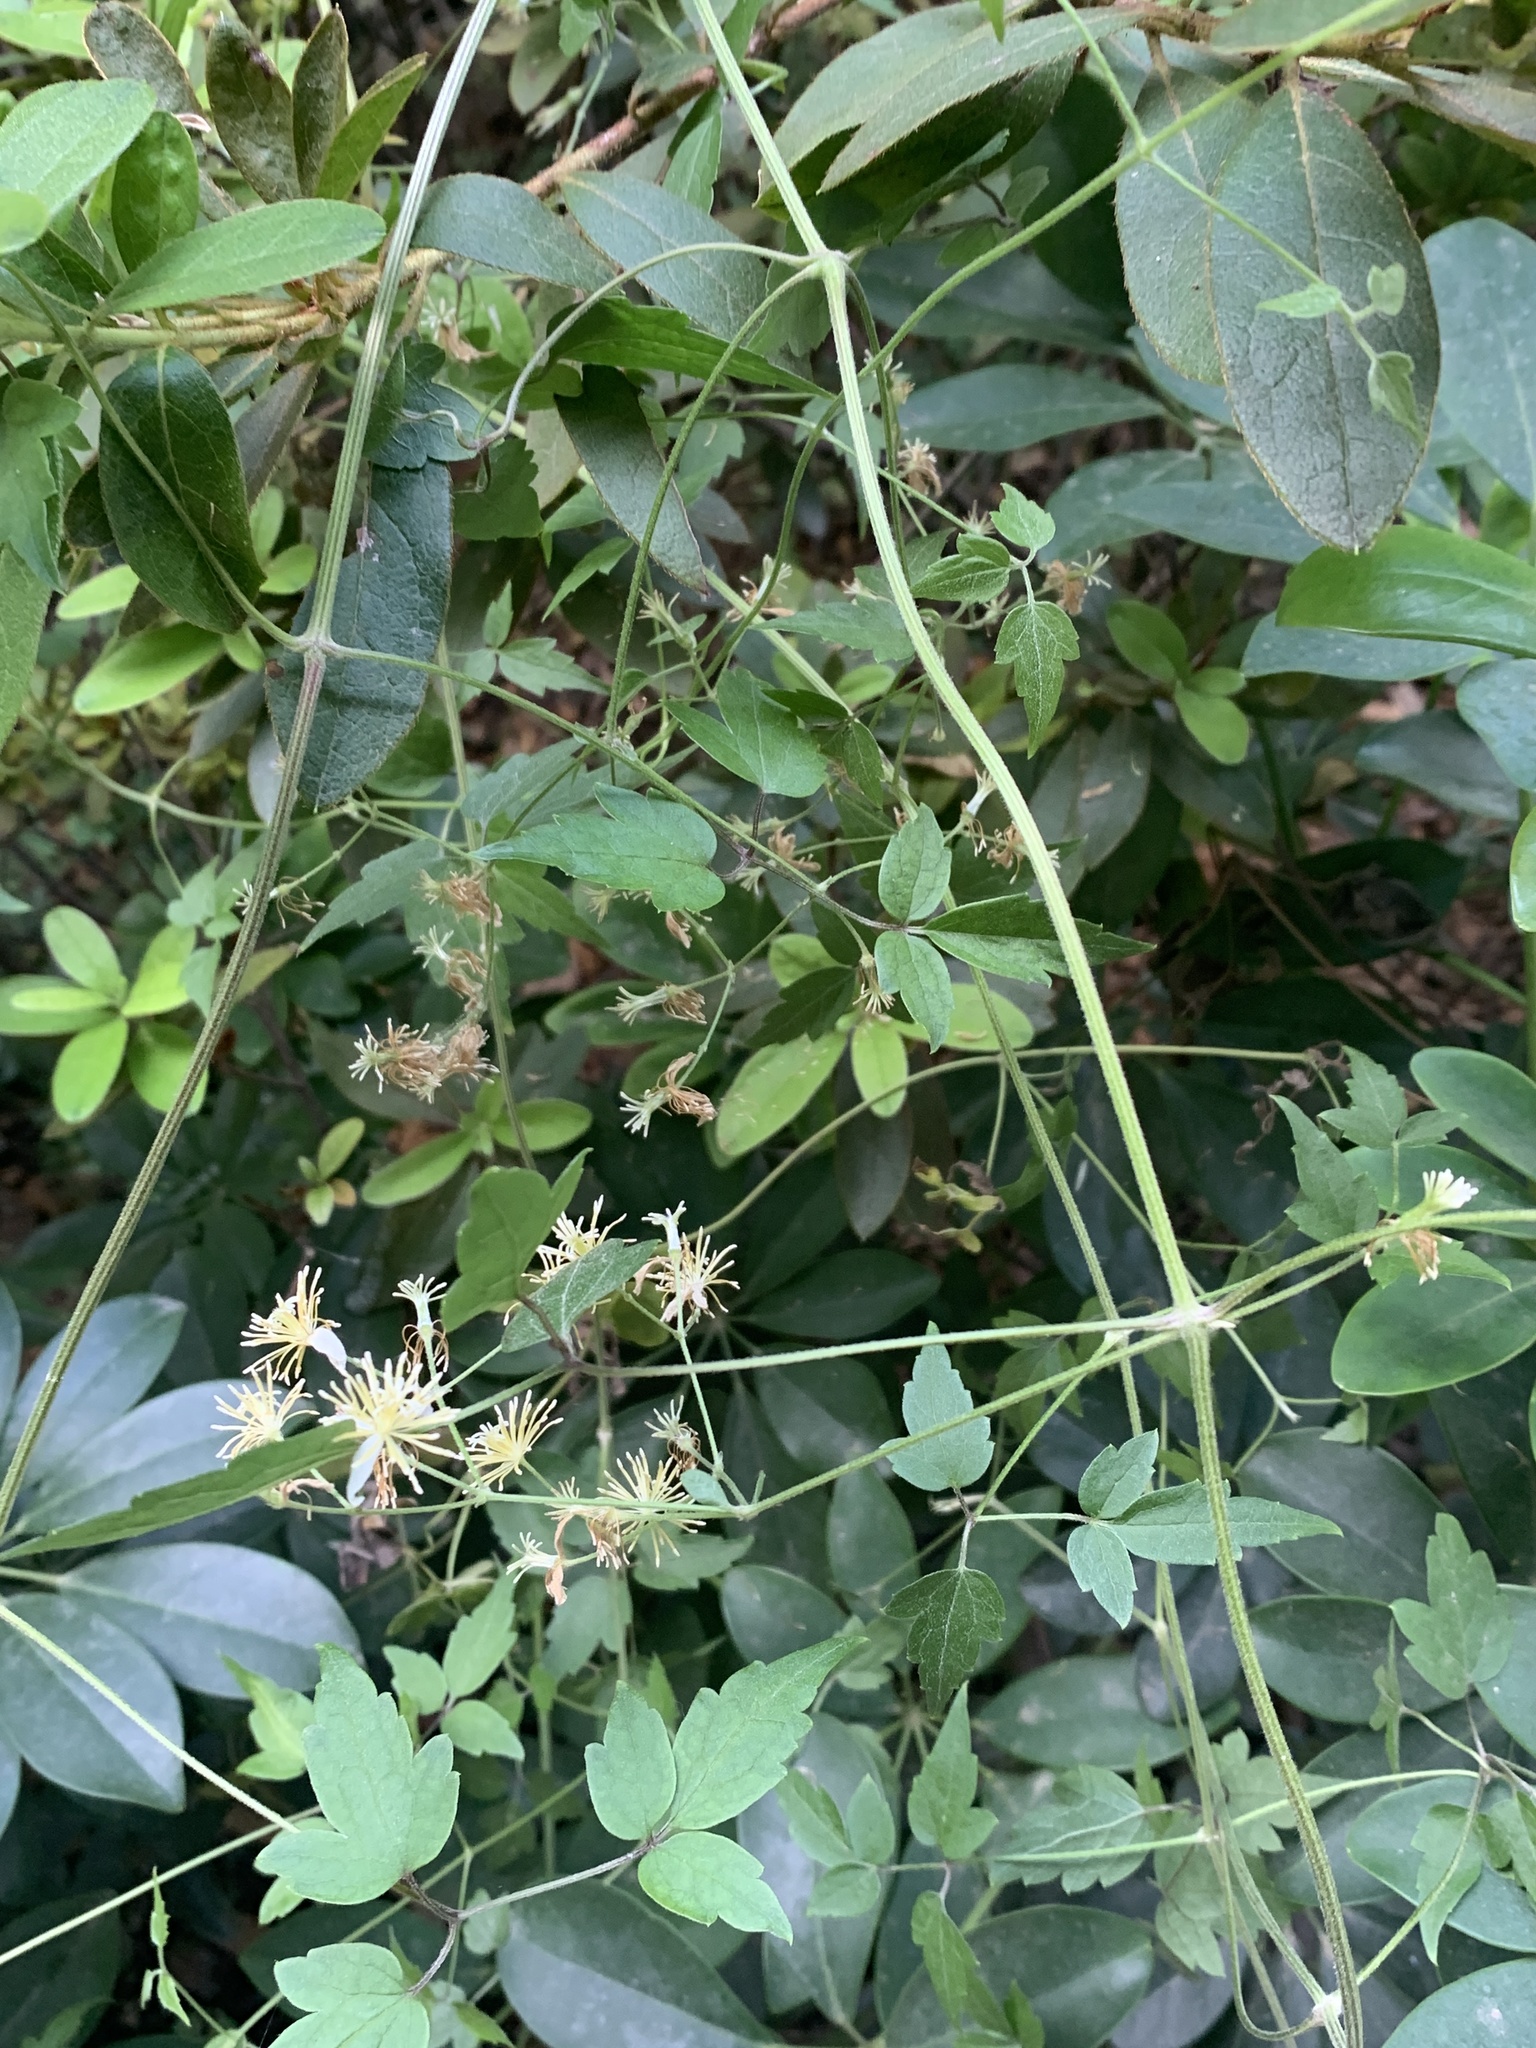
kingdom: Plantae
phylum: Tracheophyta
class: Magnoliopsida
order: Ranunculales
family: Ranunculaceae
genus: Clematis
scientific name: Clematis grata
